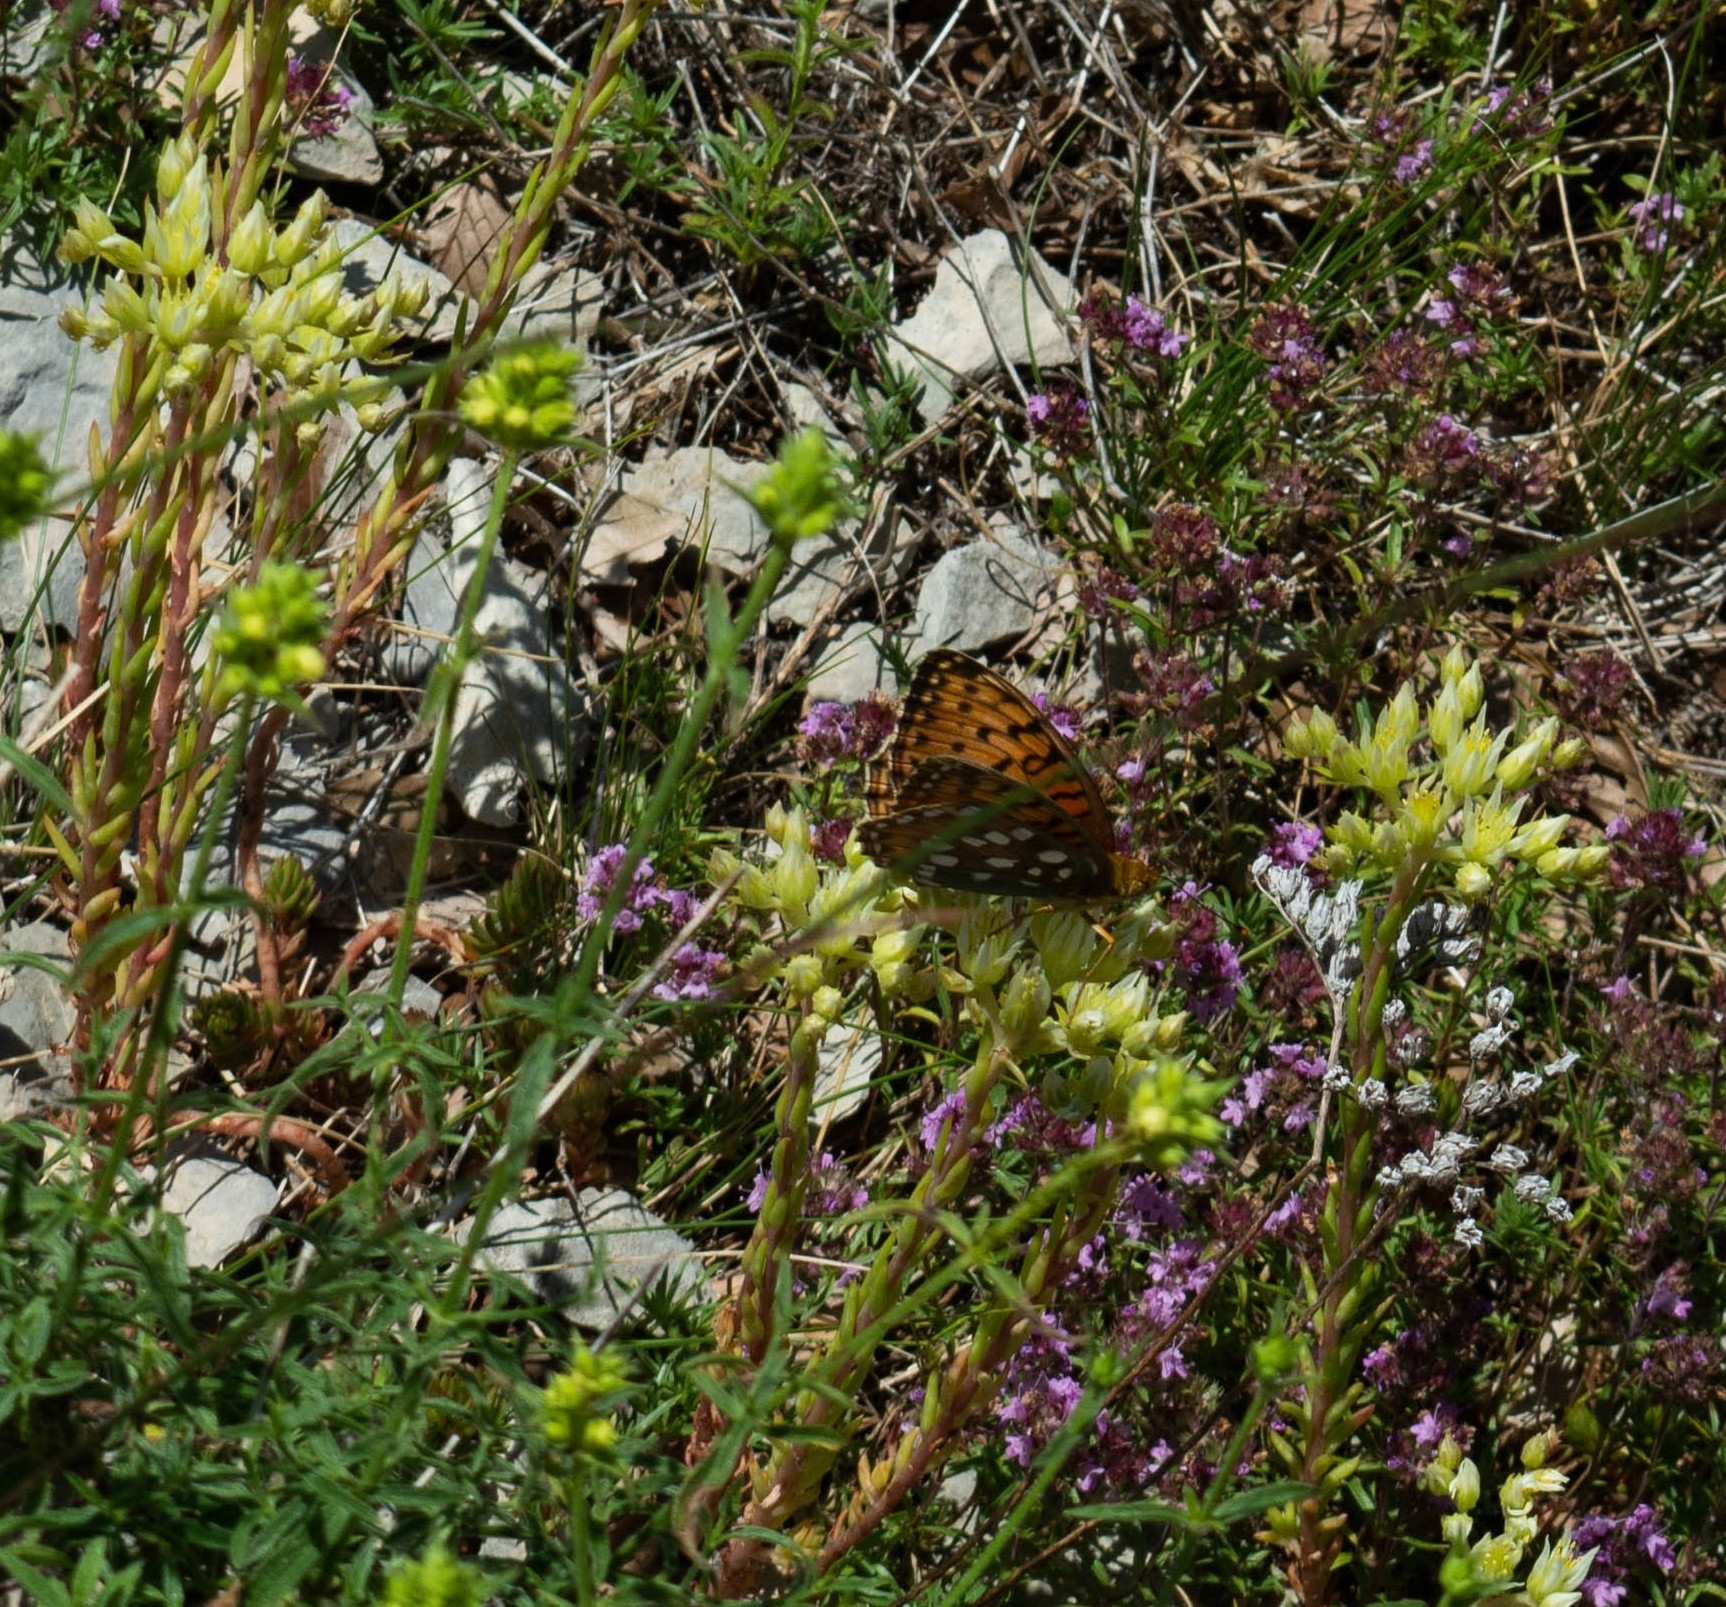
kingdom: Animalia
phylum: Arthropoda
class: Insecta
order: Lepidoptera
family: Nymphalidae
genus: Speyeria
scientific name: Speyeria aglaja
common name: Dark green fritillary
